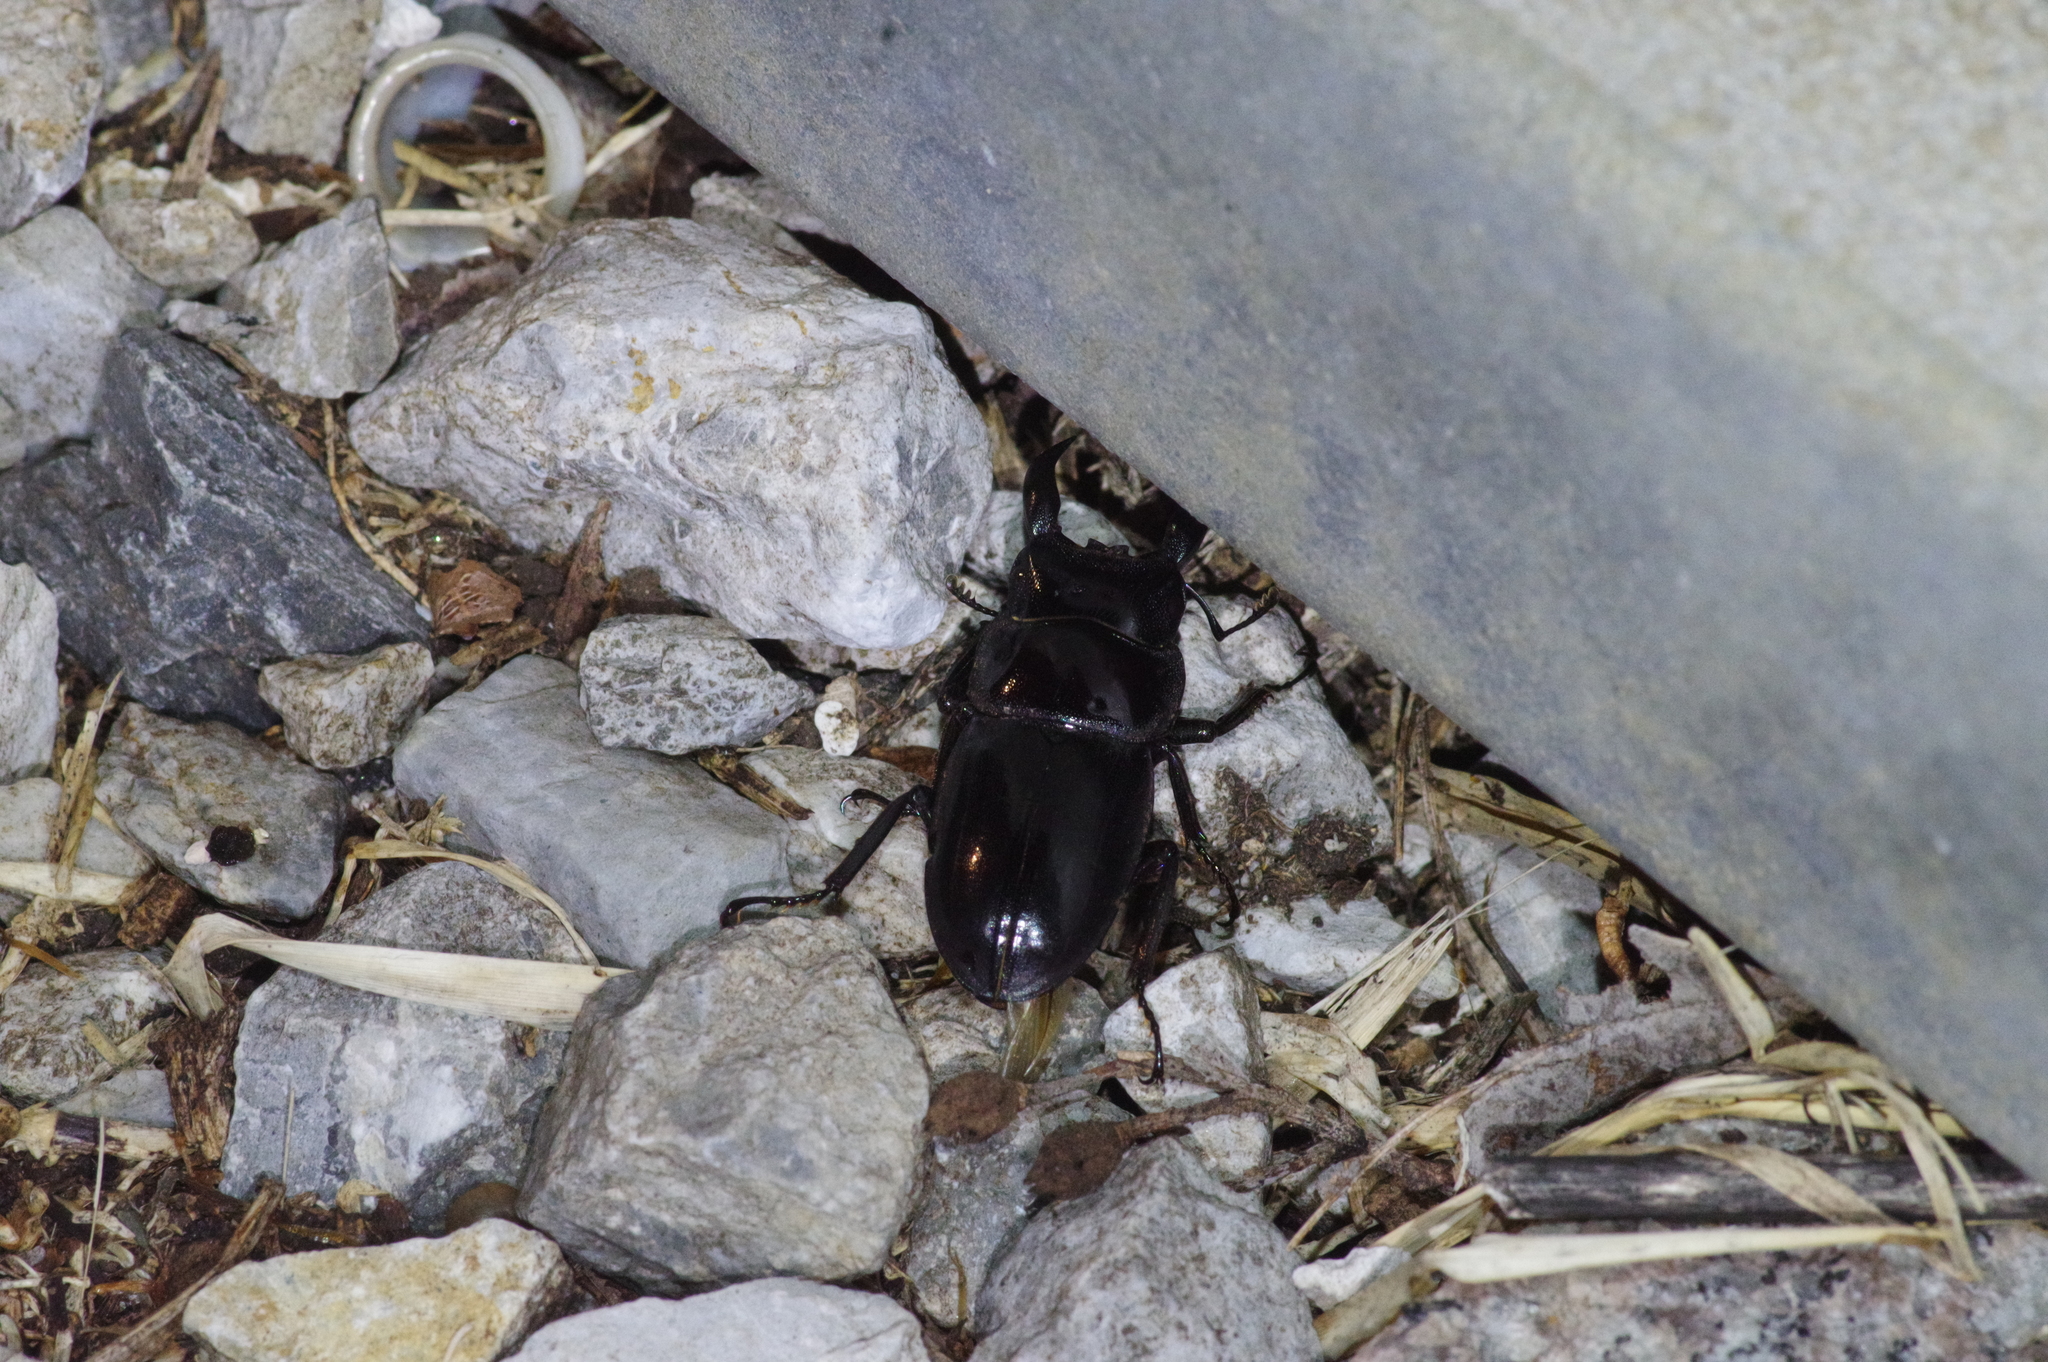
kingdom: Animalia
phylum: Arthropoda
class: Insecta
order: Coleoptera
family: Lucanidae
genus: Serrognathus
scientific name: Serrognathus titanus
